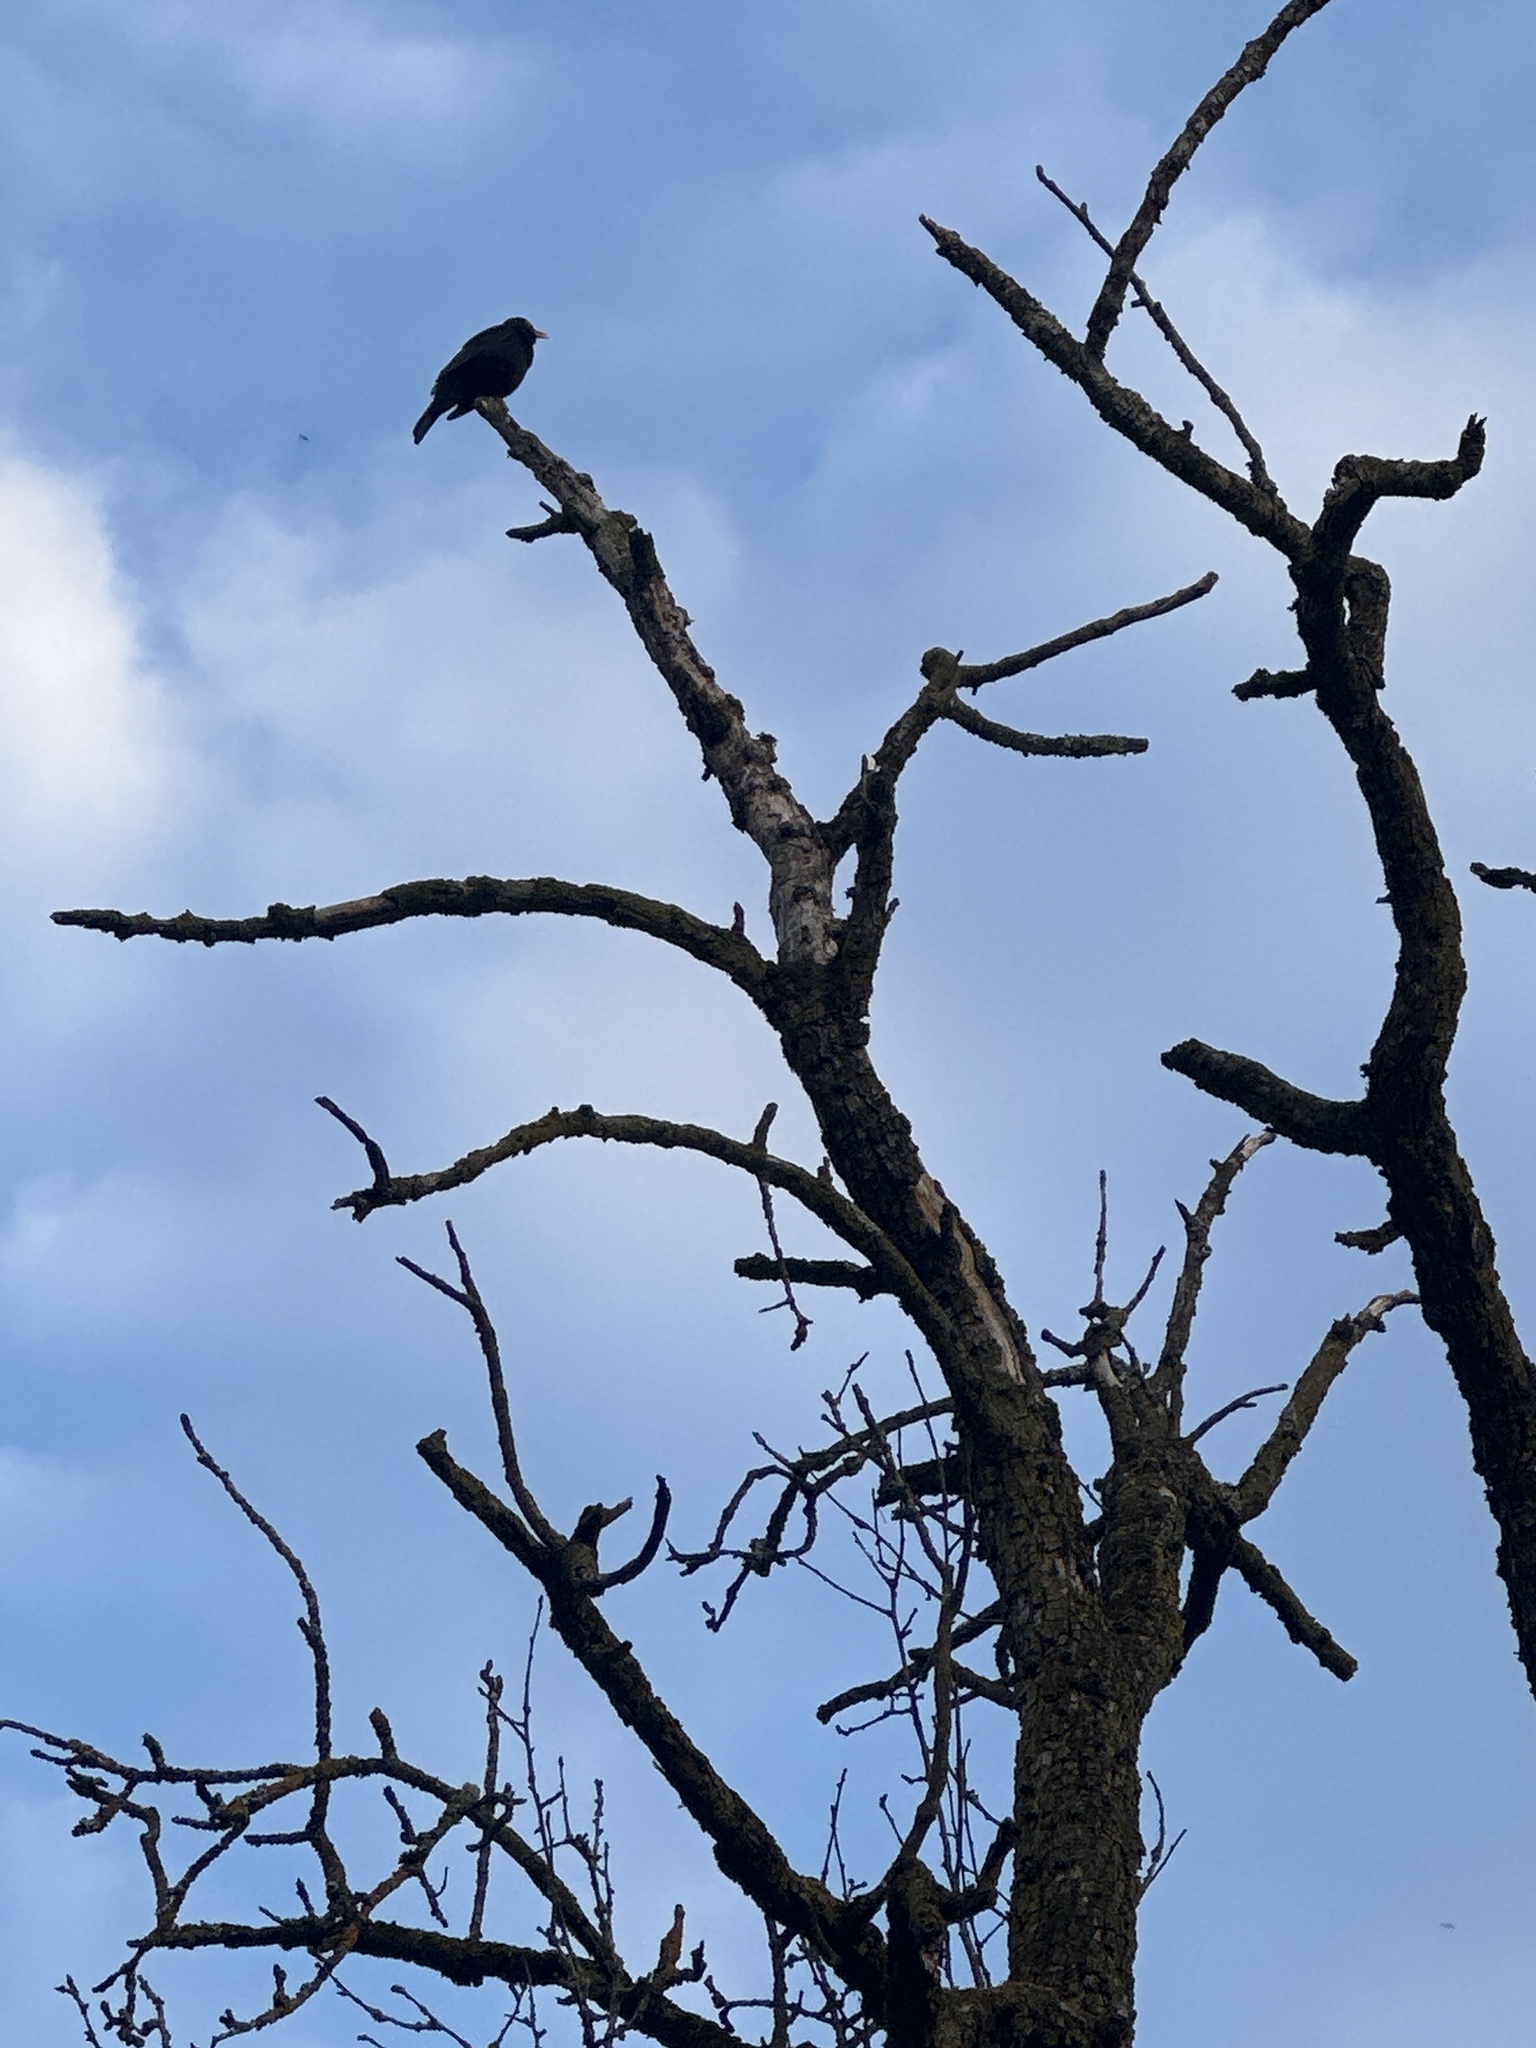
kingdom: Animalia
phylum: Chordata
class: Aves
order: Passeriformes
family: Turdidae
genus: Turdus
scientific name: Turdus merula
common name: Common blackbird
